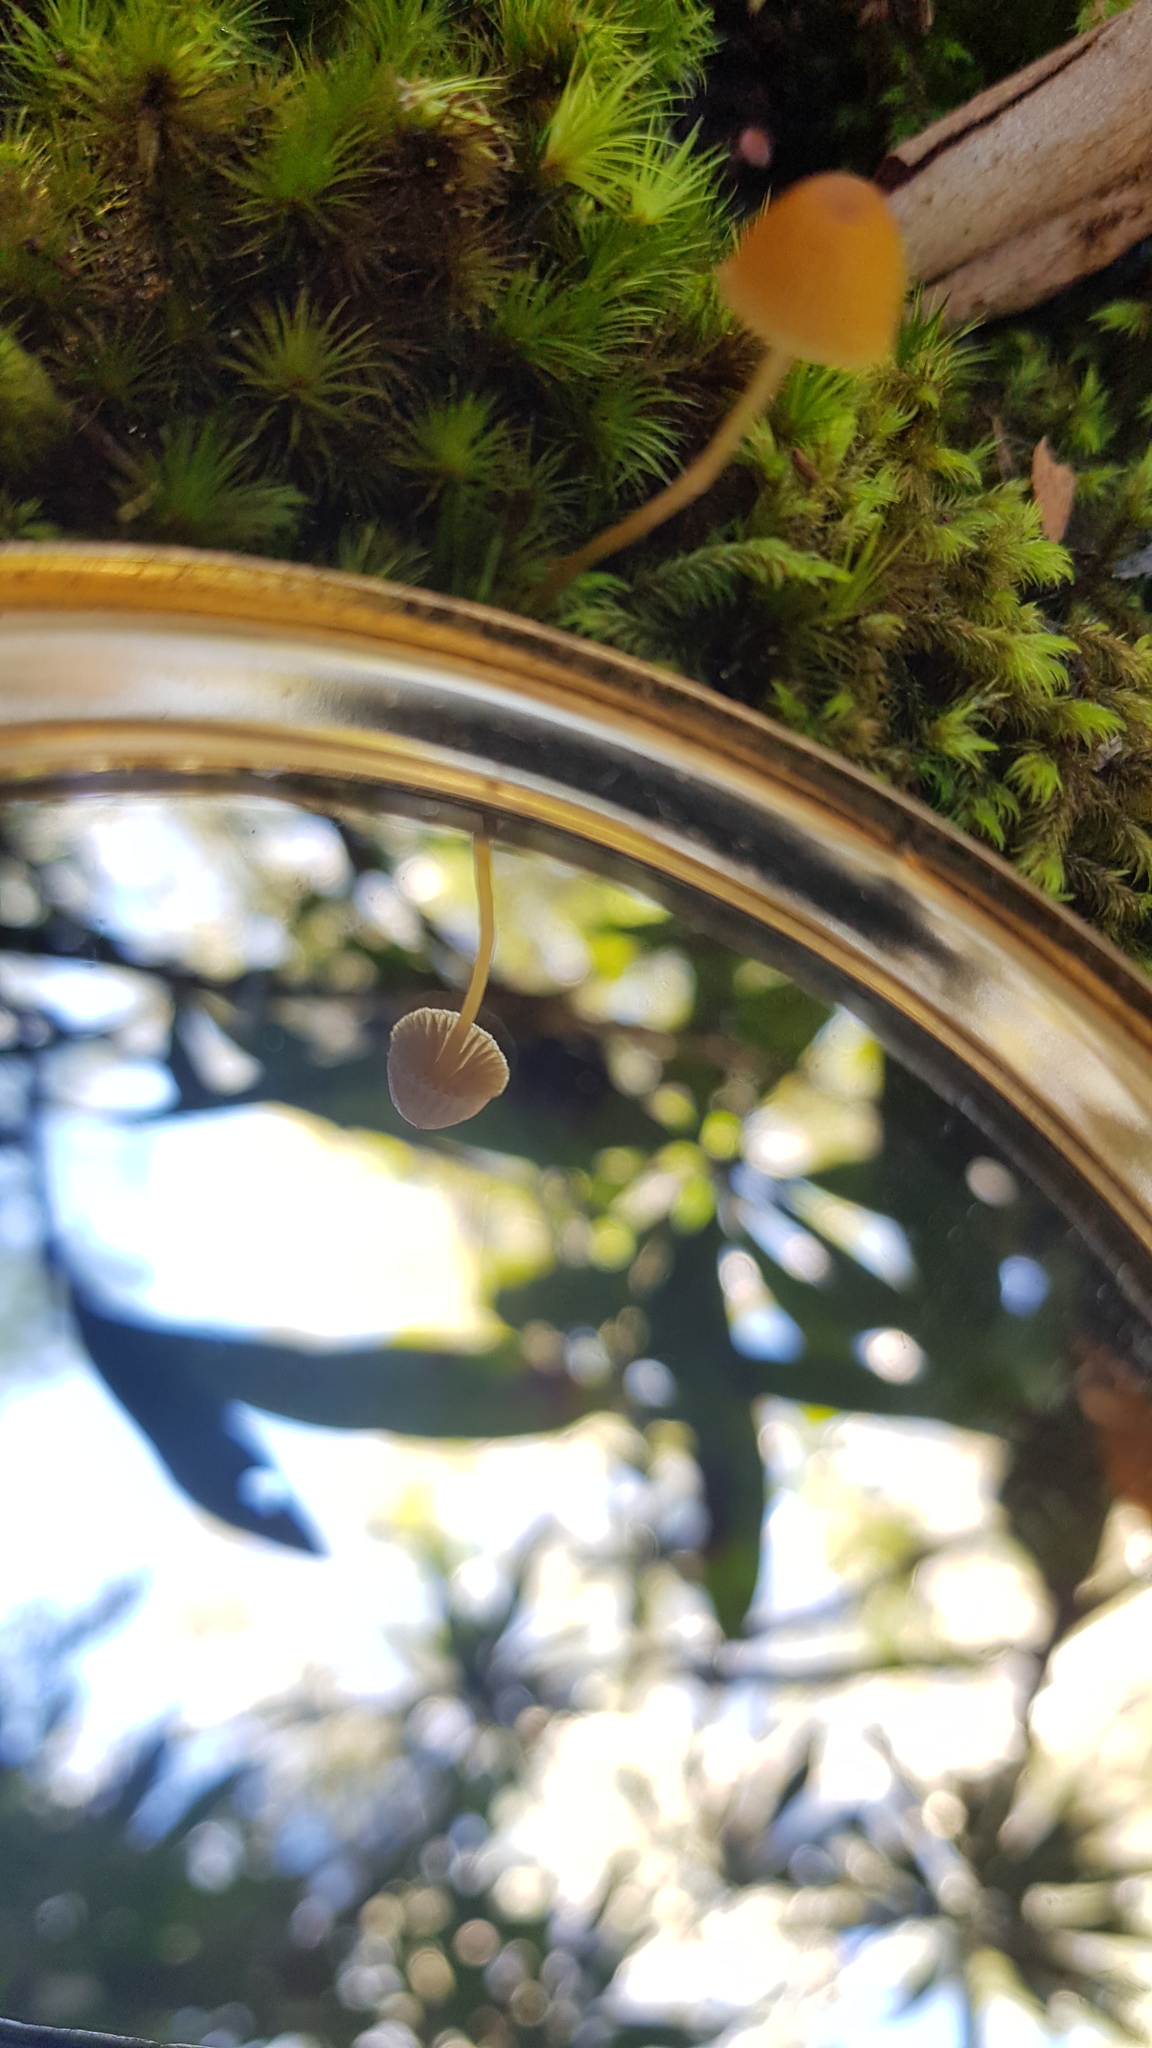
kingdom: Fungi
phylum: Basidiomycota
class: Agaricomycetes
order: Agaricales
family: Hymenogastraceae
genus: Galerina
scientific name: Galerina hypnorum
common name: Moss bell
